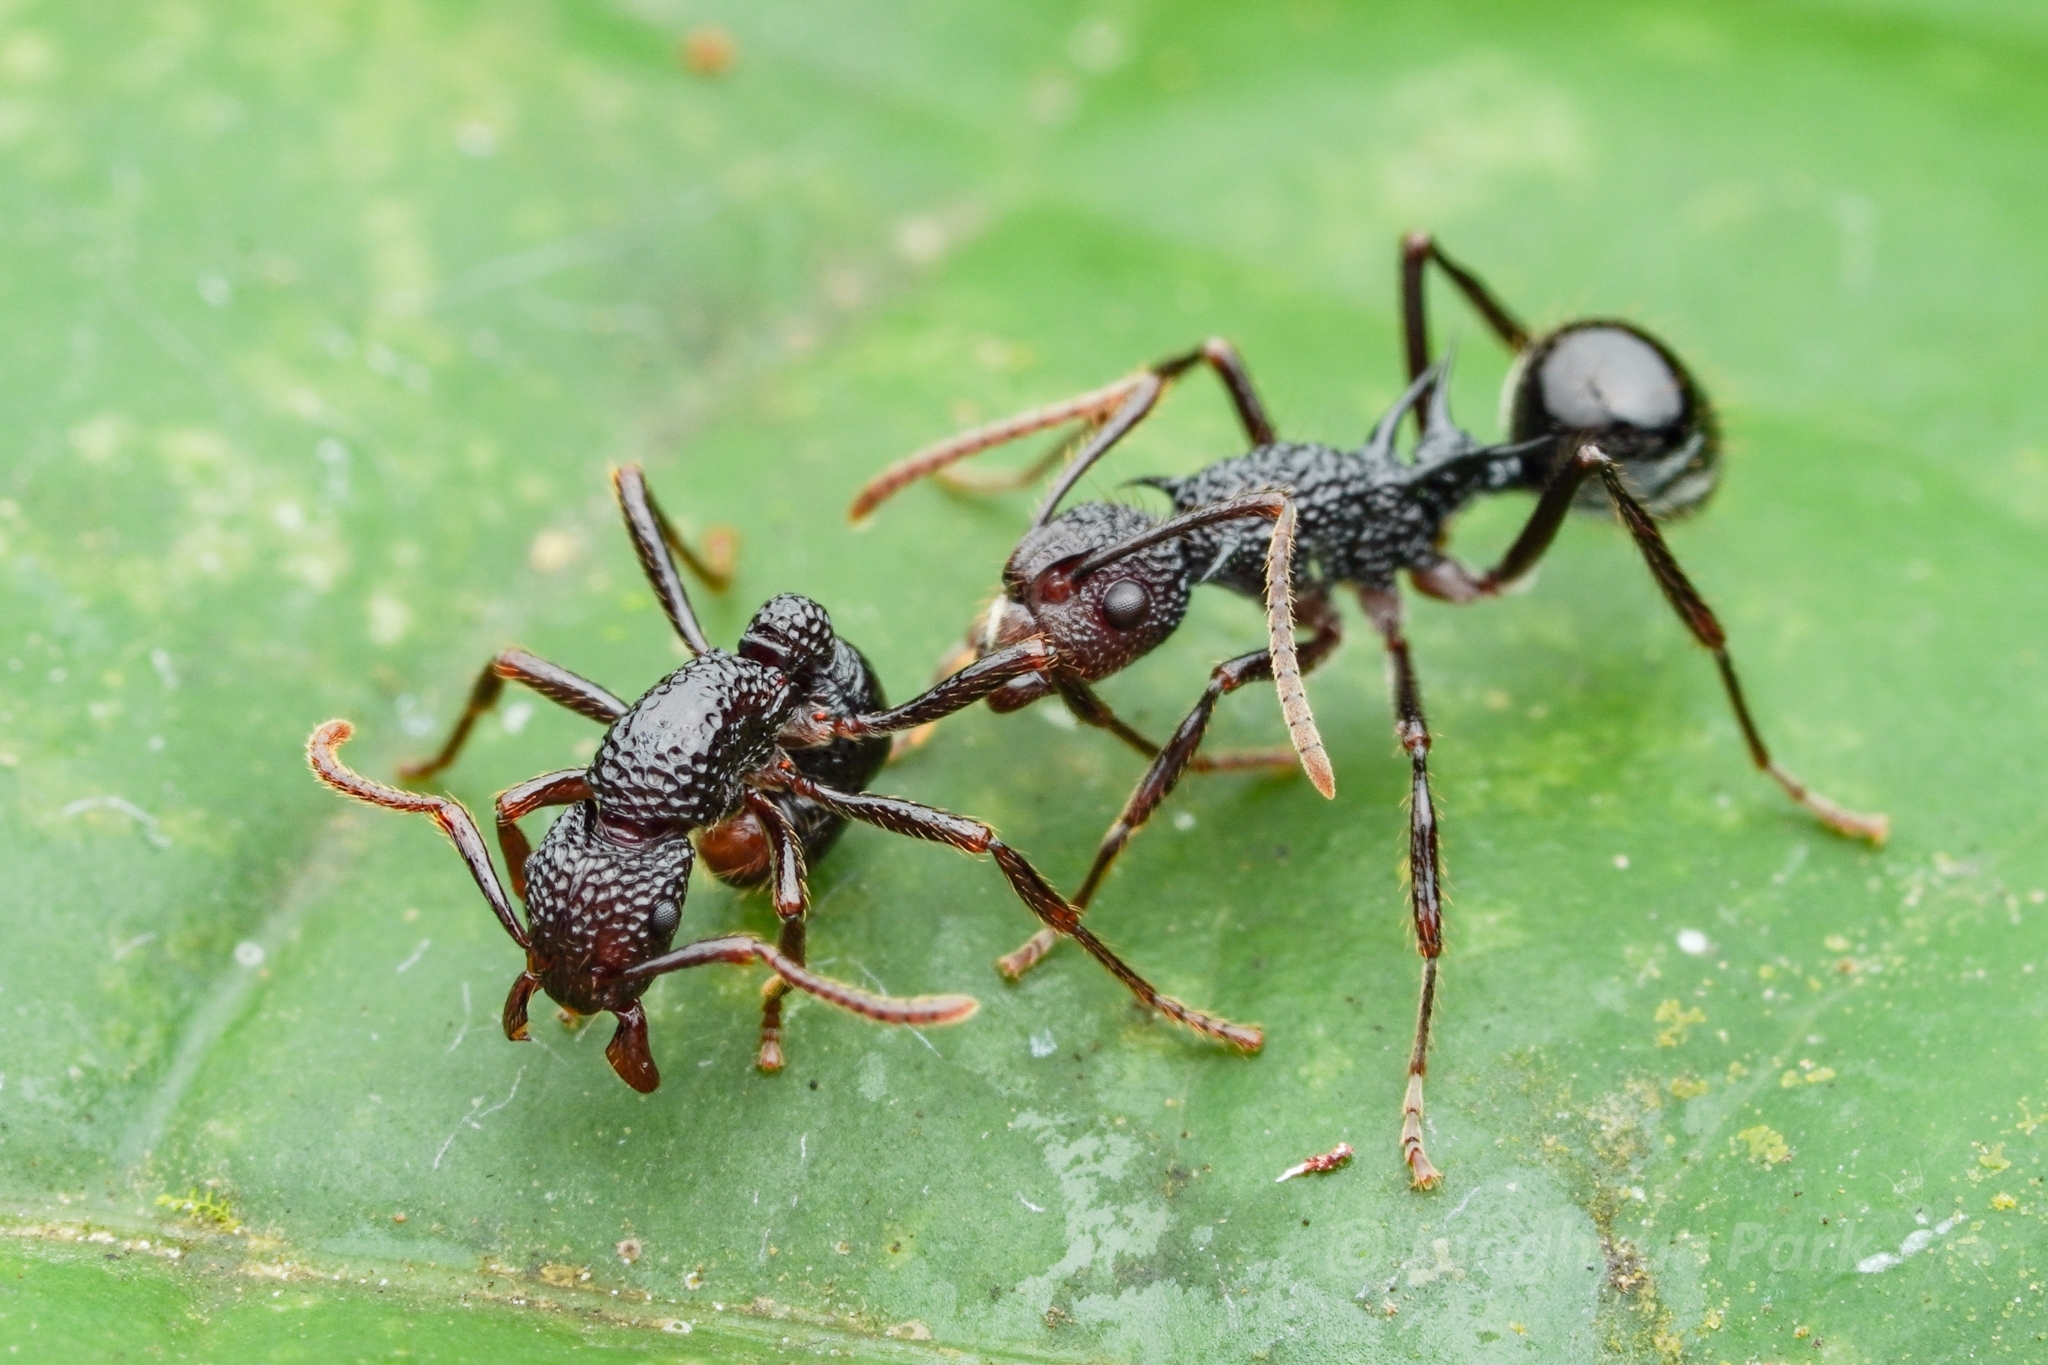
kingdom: Animalia
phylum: Arthropoda
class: Insecta
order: Hymenoptera
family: Formicidae
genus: Polyrhachis
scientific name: Polyrhachis rufipes
